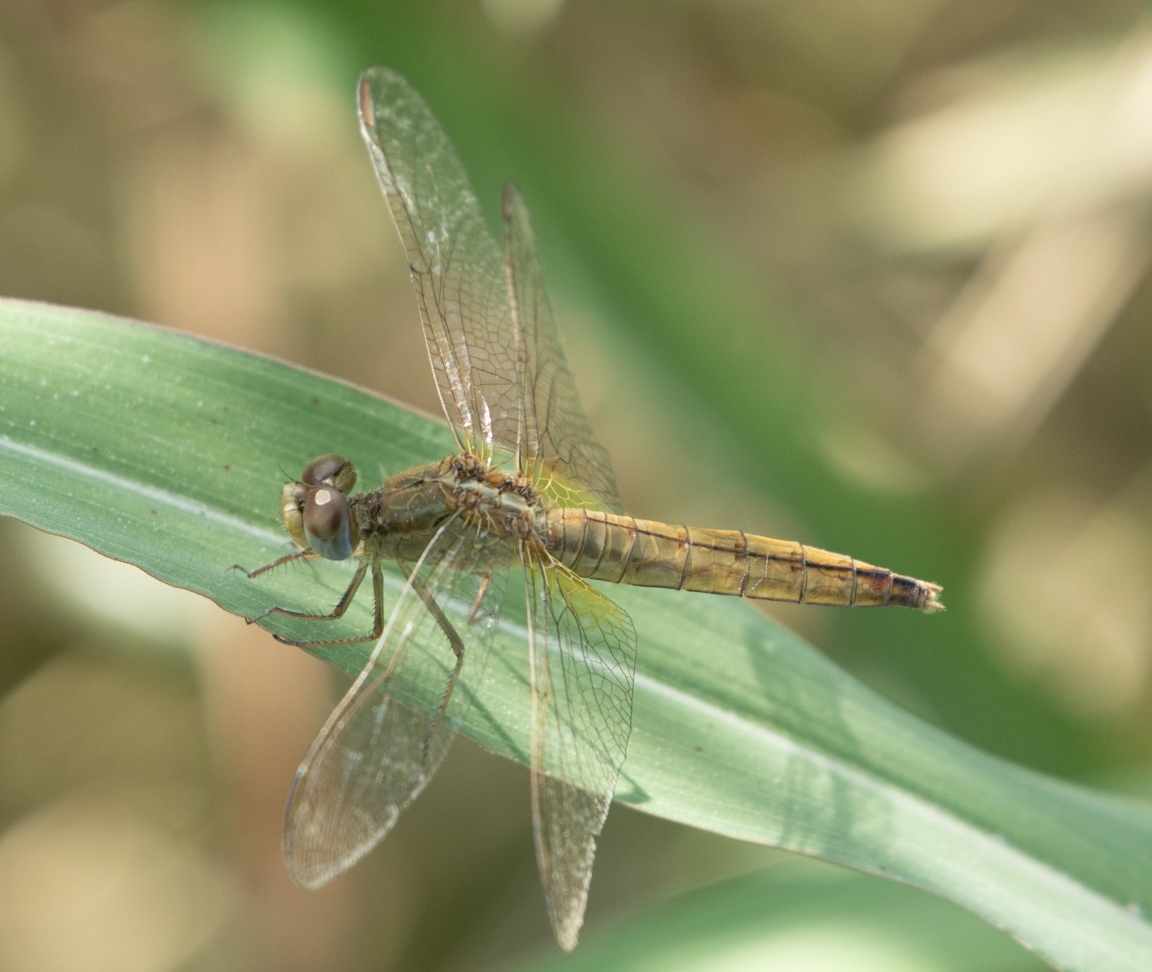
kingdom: Animalia
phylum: Arthropoda
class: Insecta
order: Odonata
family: Libellulidae
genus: Crocothemis
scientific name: Crocothemis erythraea
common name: Scarlet dragonfly
